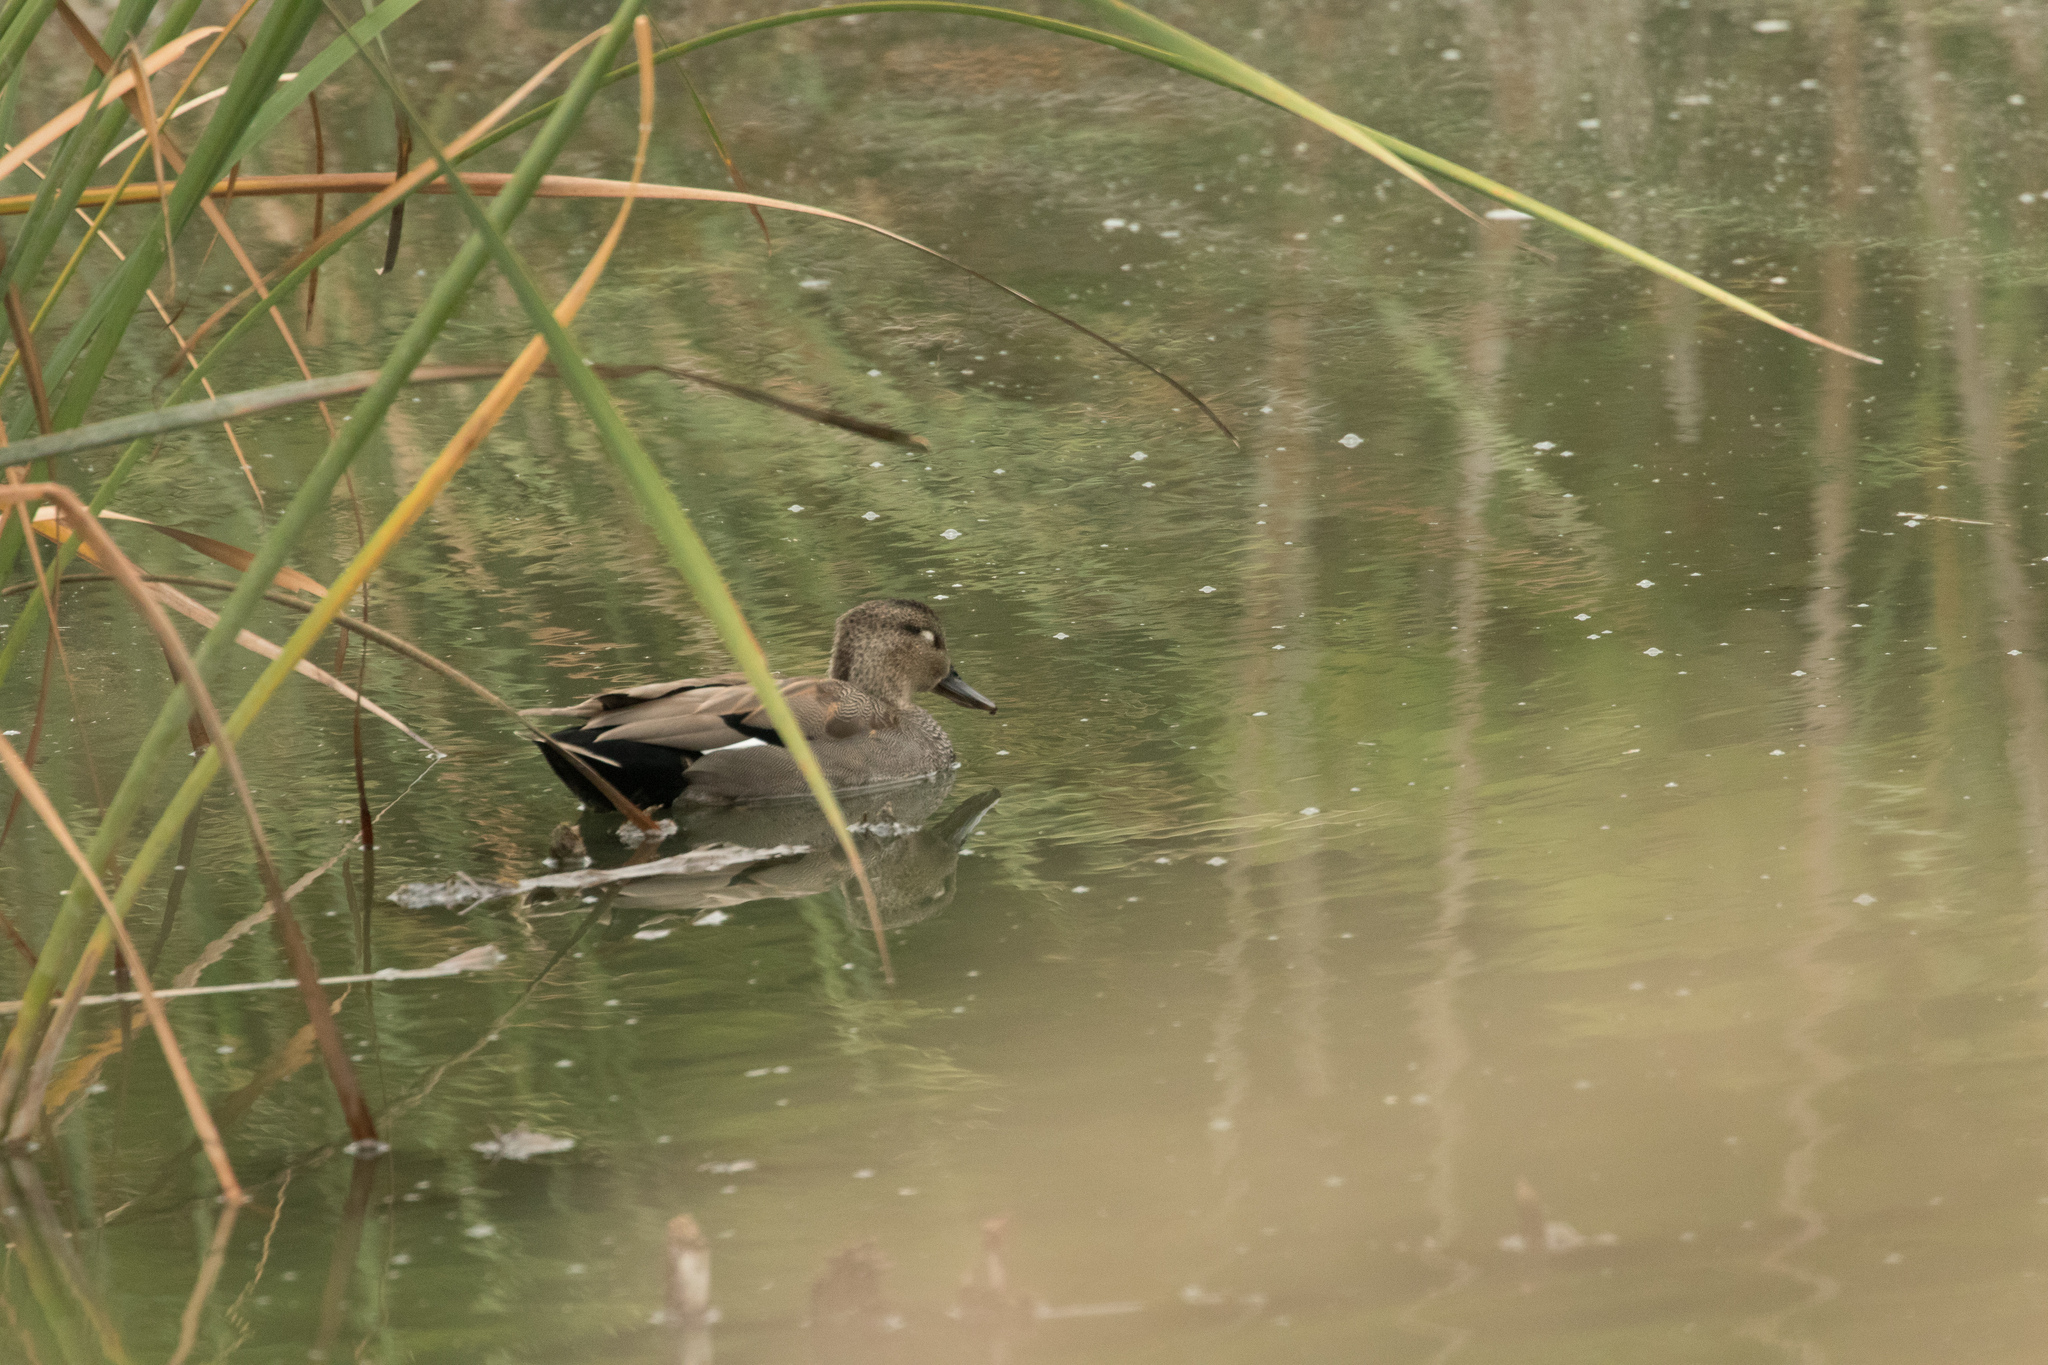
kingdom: Animalia
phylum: Chordata
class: Aves
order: Anseriformes
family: Anatidae
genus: Mareca
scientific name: Mareca strepera
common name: Gadwall
